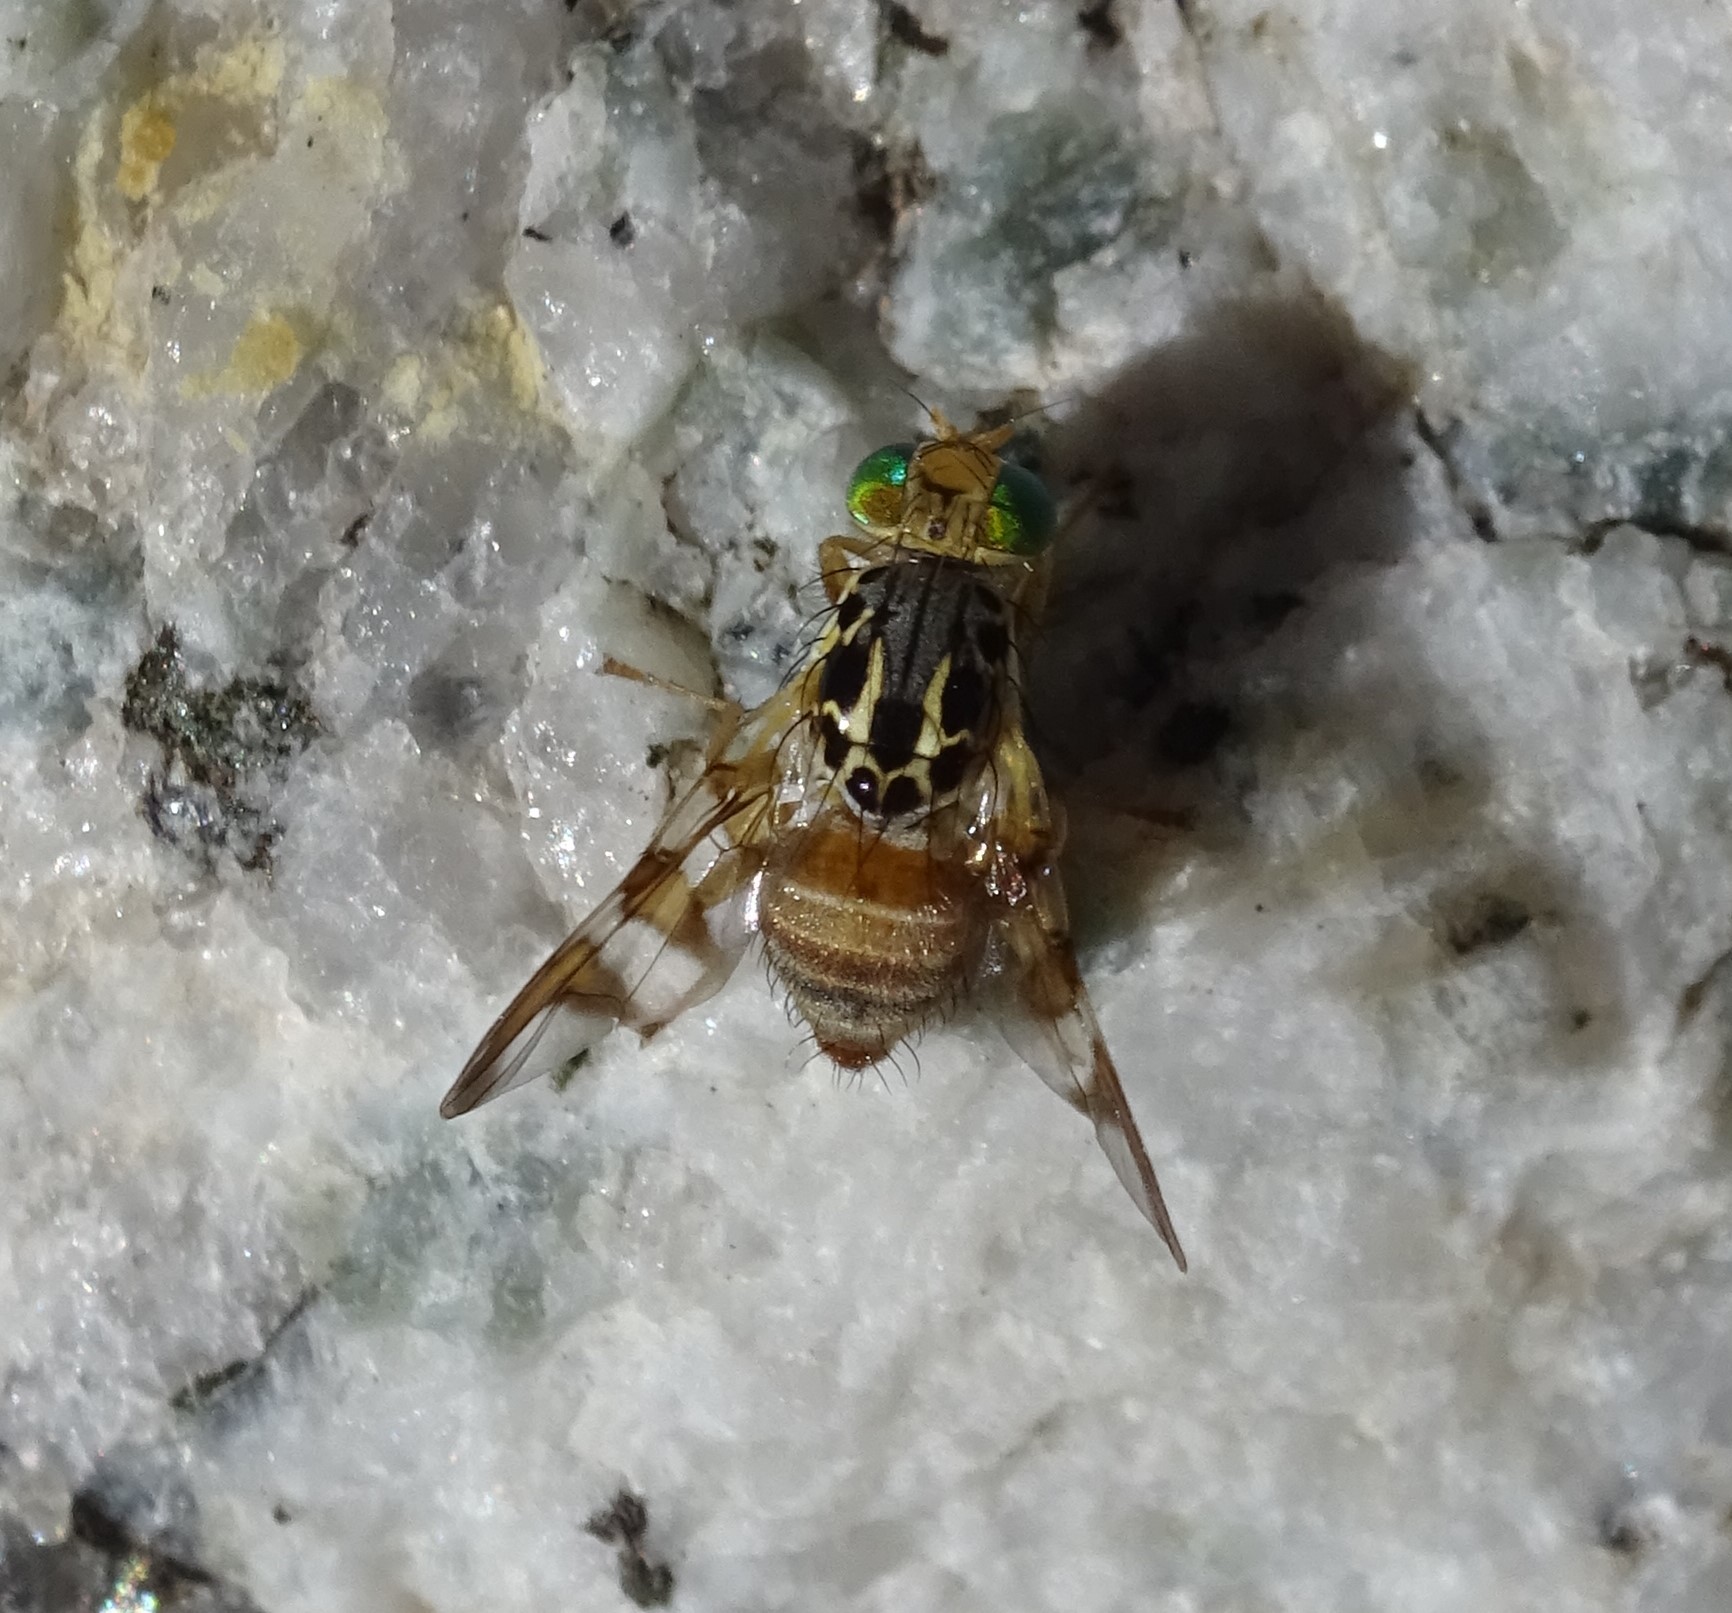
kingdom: Animalia
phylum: Arthropoda
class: Insecta
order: Diptera
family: Tephritidae
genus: Carpomya
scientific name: Carpomya schineri
